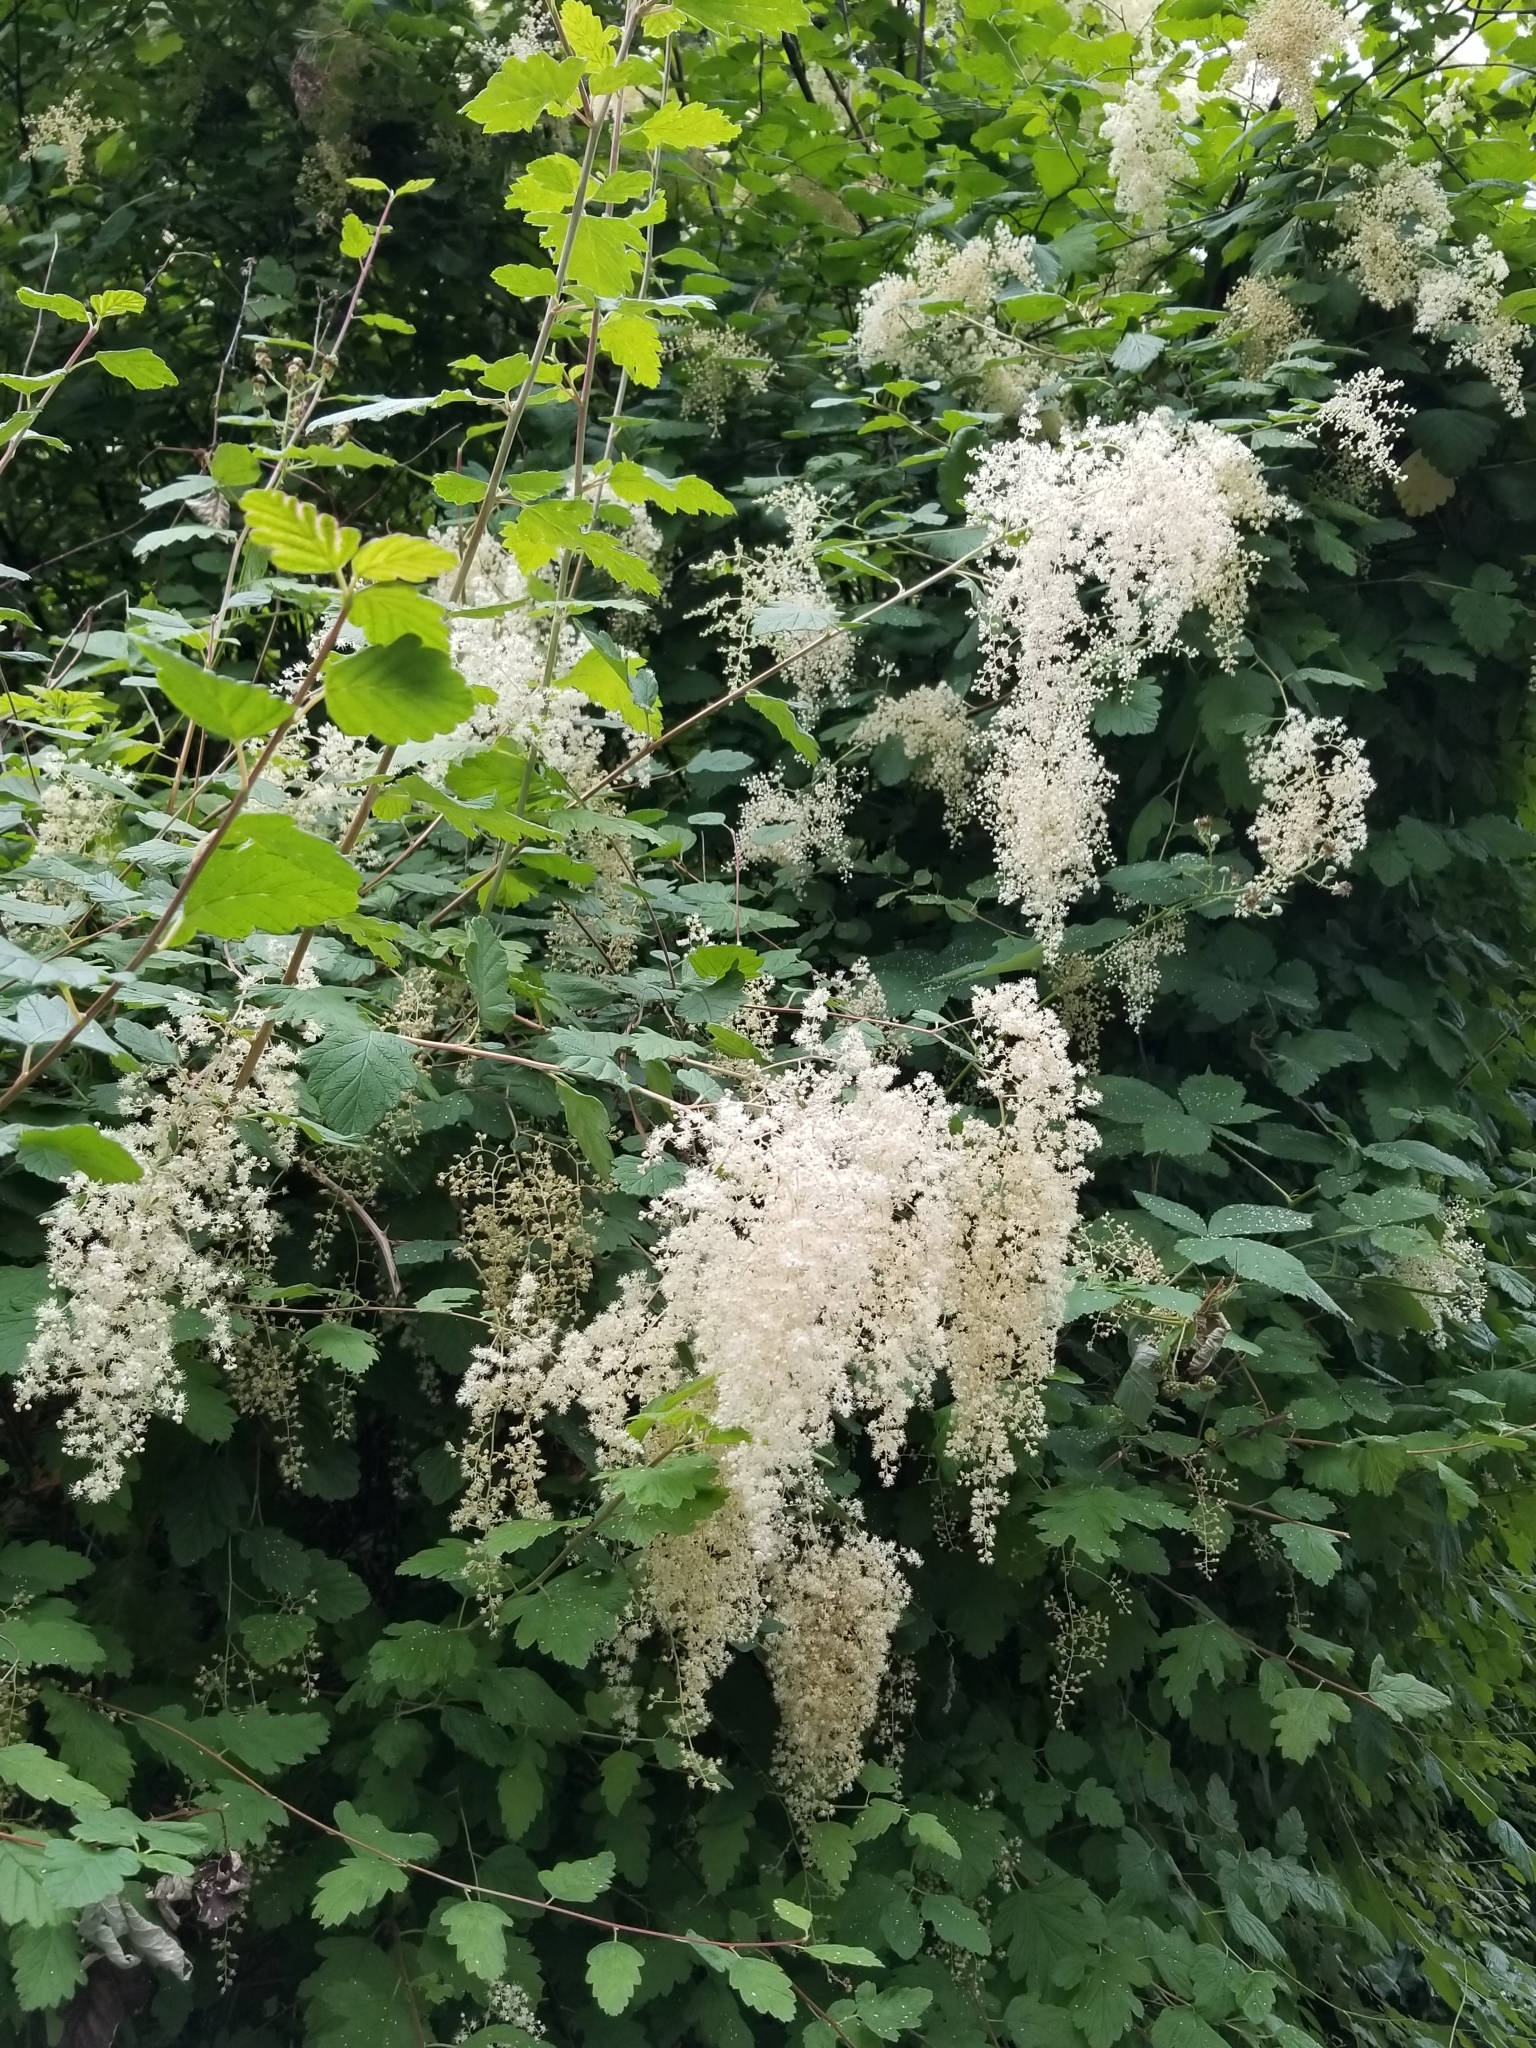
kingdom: Plantae
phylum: Tracheophyta
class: Magnoliopsida
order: Rosales
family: Rosaceae
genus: Holodiscus
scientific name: Holodiscus discolor
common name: Oceanspray
